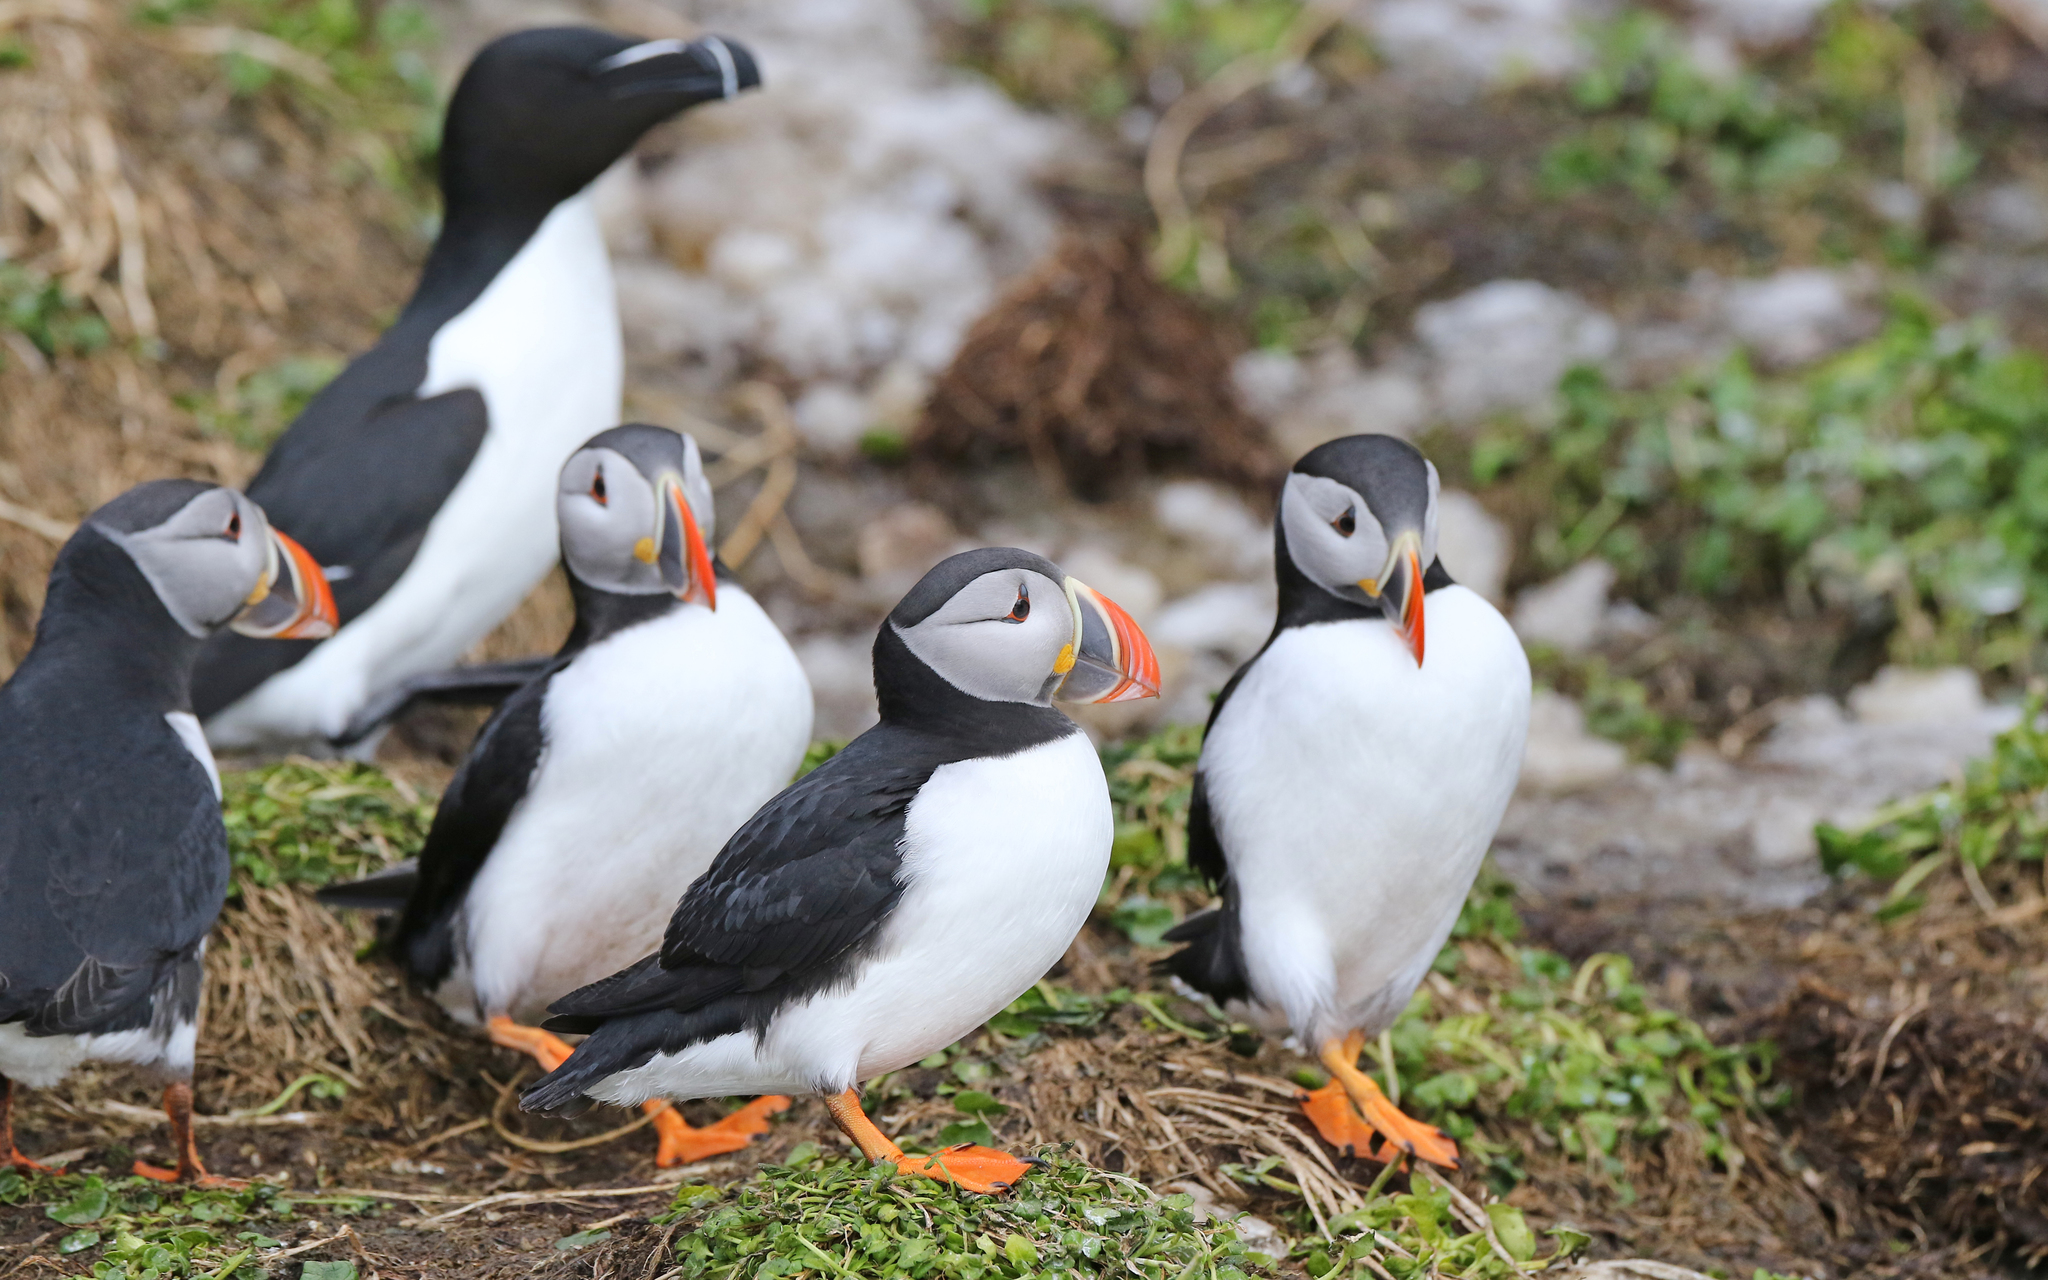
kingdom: Animalia
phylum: Chordata
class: Aves
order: Charadriiformes
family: Alcidae
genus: Fratercula
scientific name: Fratercula arctica
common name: Atlantic puffin
